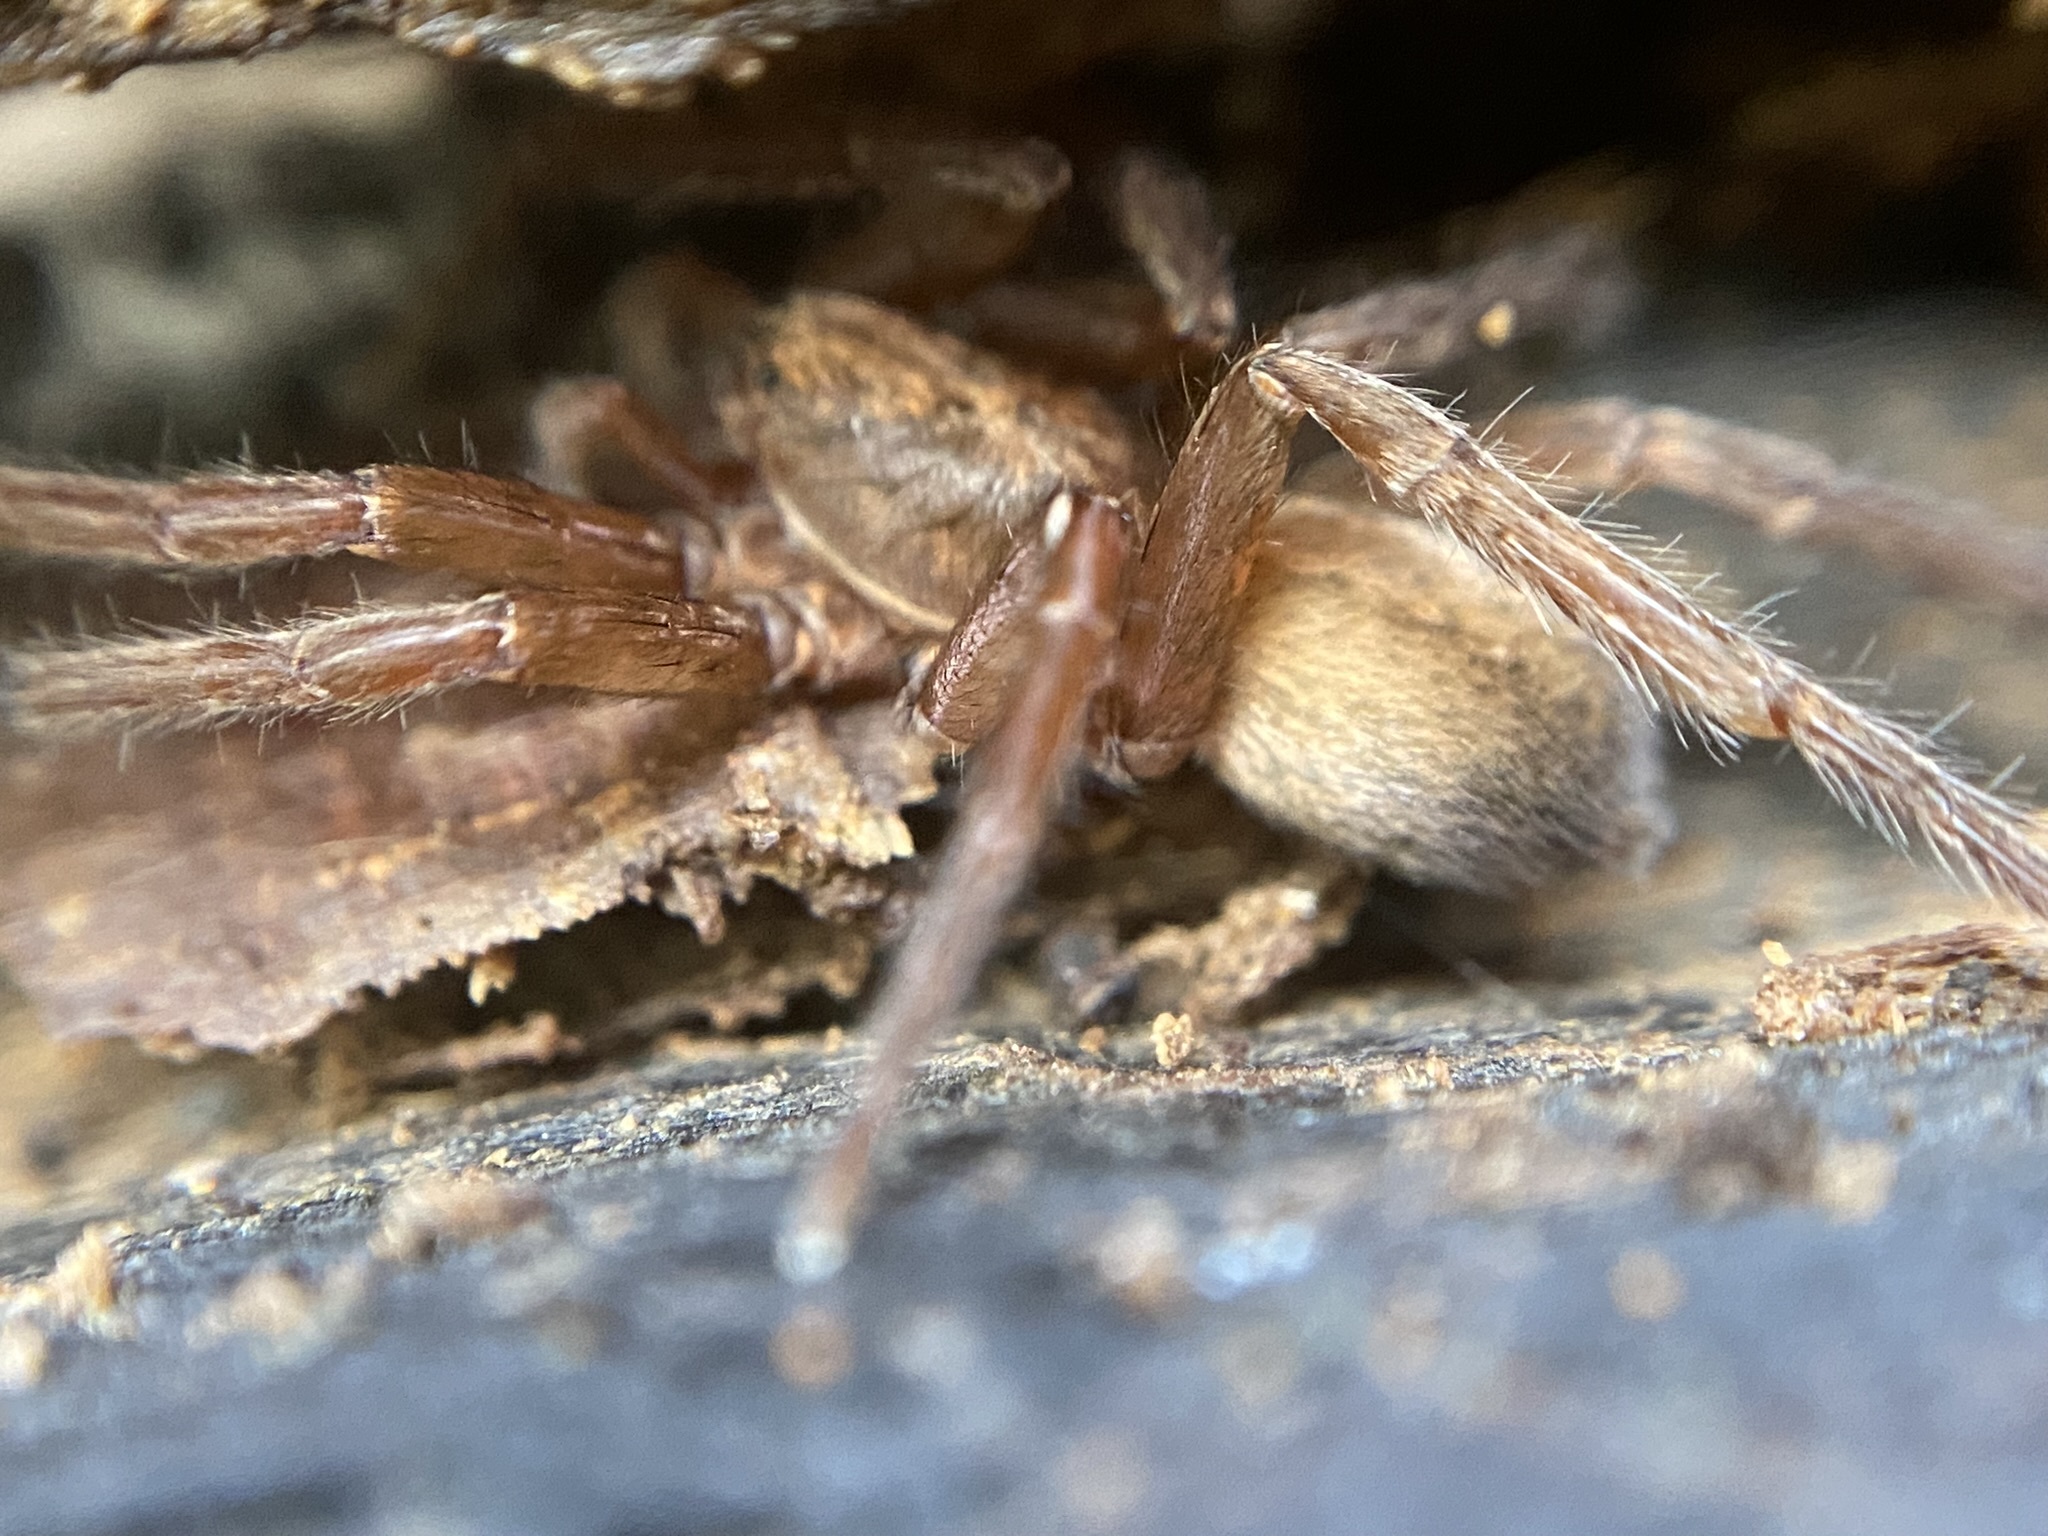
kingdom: Animalia
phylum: Arthropoda
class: Arachnida
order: Araneae
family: Ctenidae
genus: Asthenoctenus
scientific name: Asthenoctenus borellii
